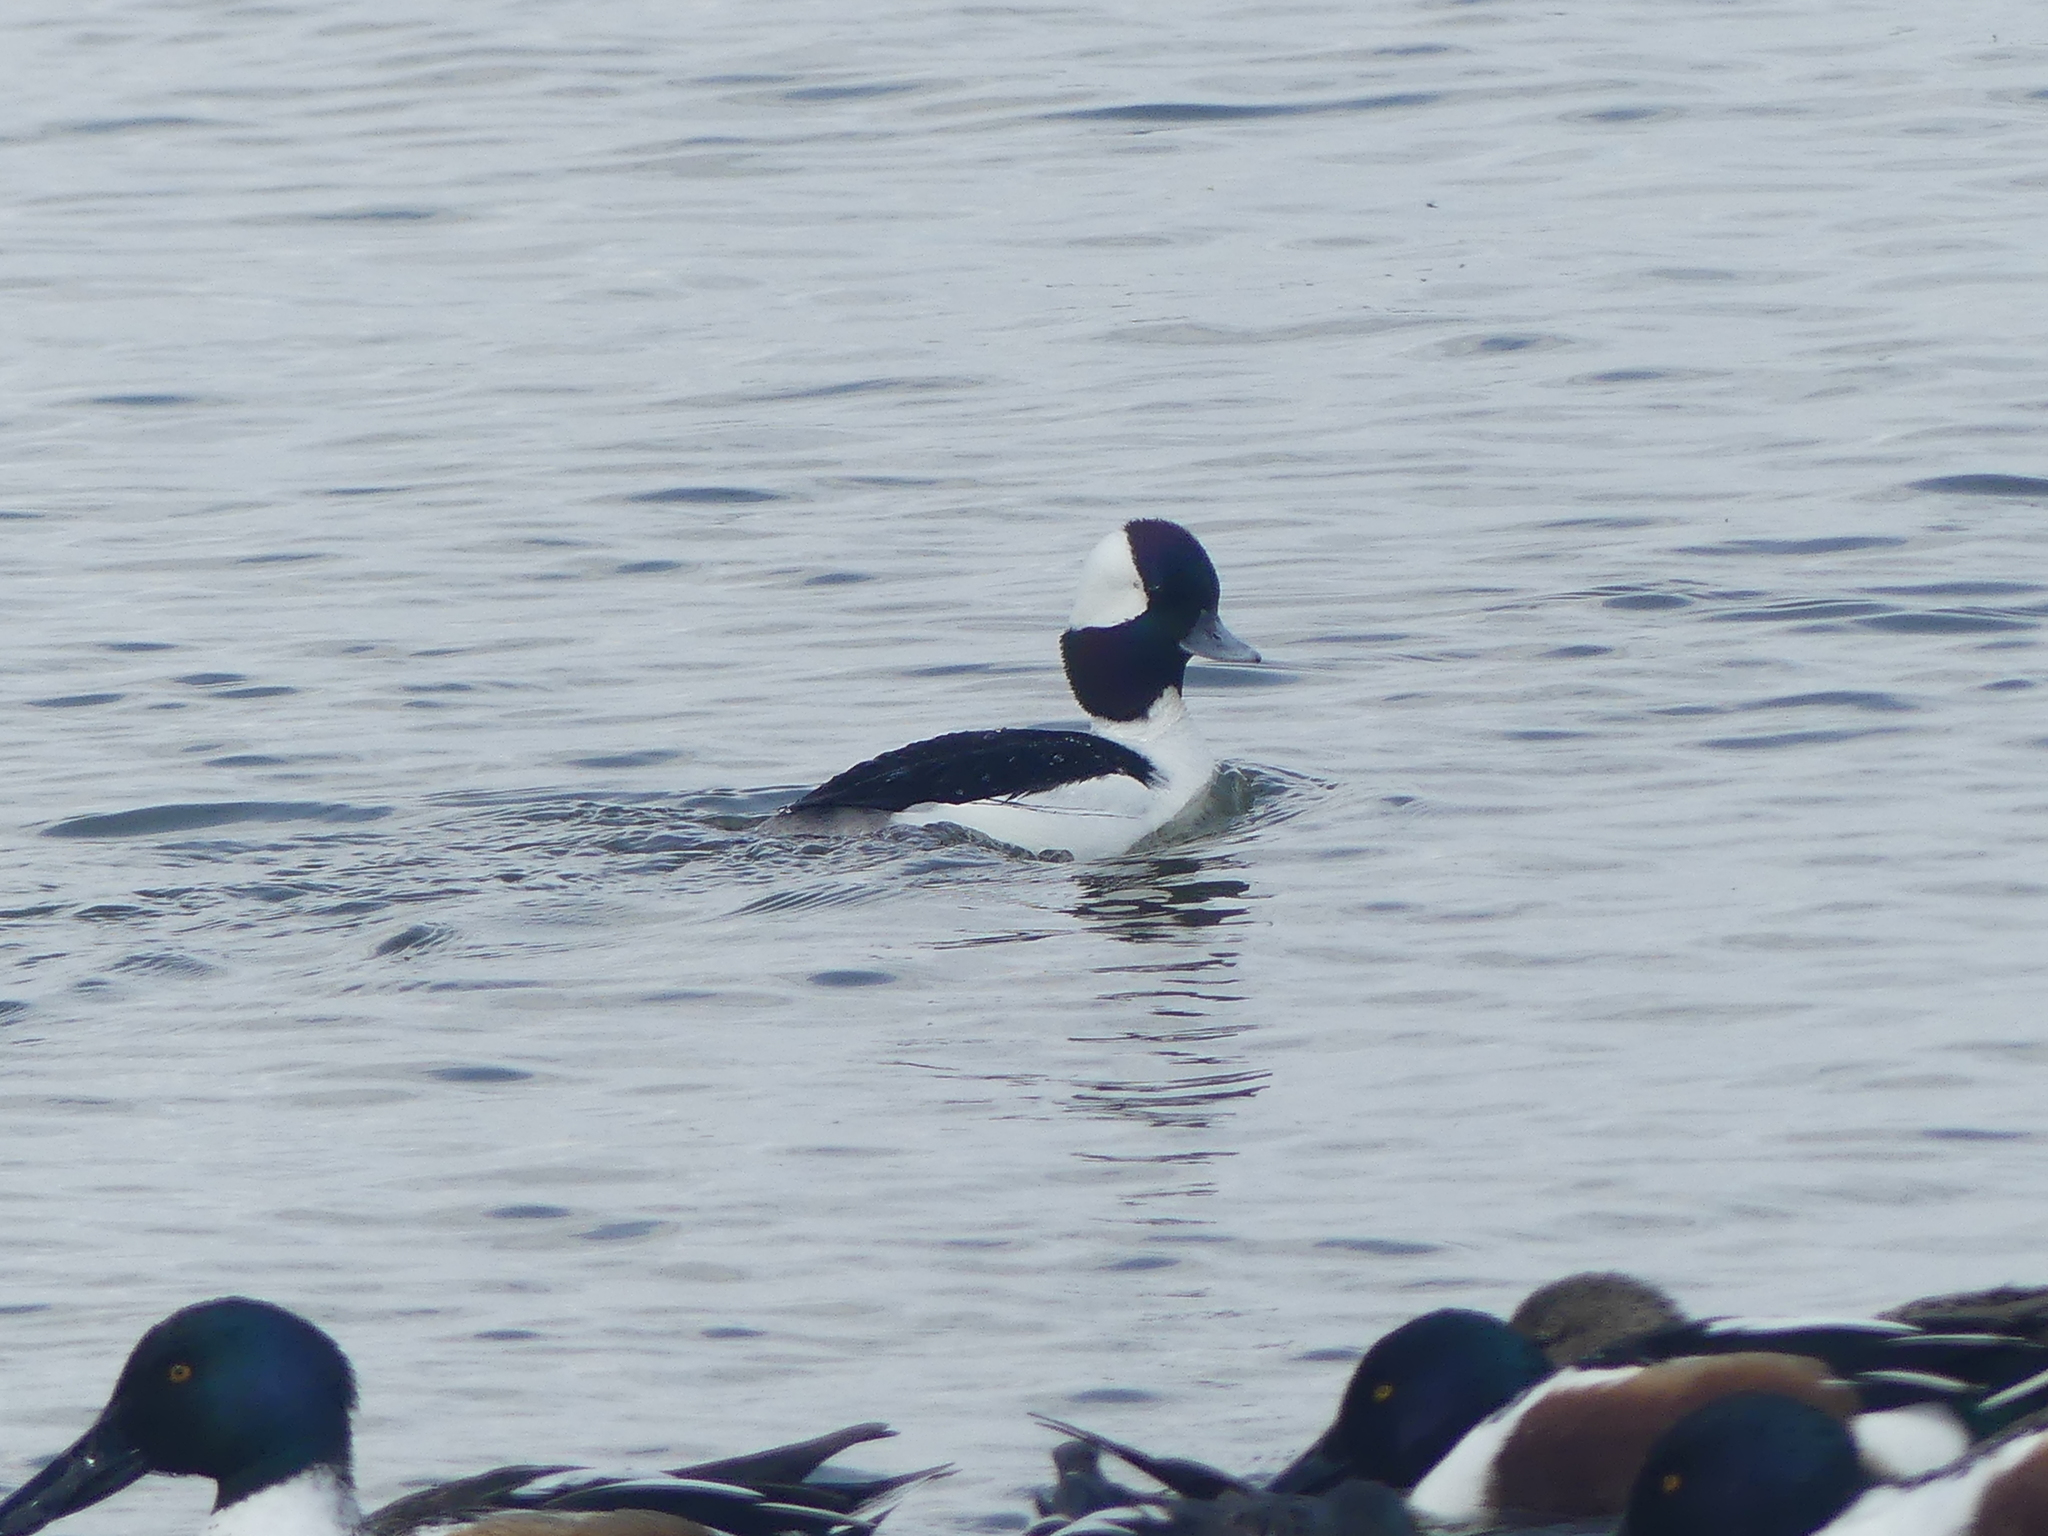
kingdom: Animalia
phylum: Chordata
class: Aves
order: Anseriformes
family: Anatidae
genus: Bucephala
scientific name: Bucephala albeola
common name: Bufflehead
